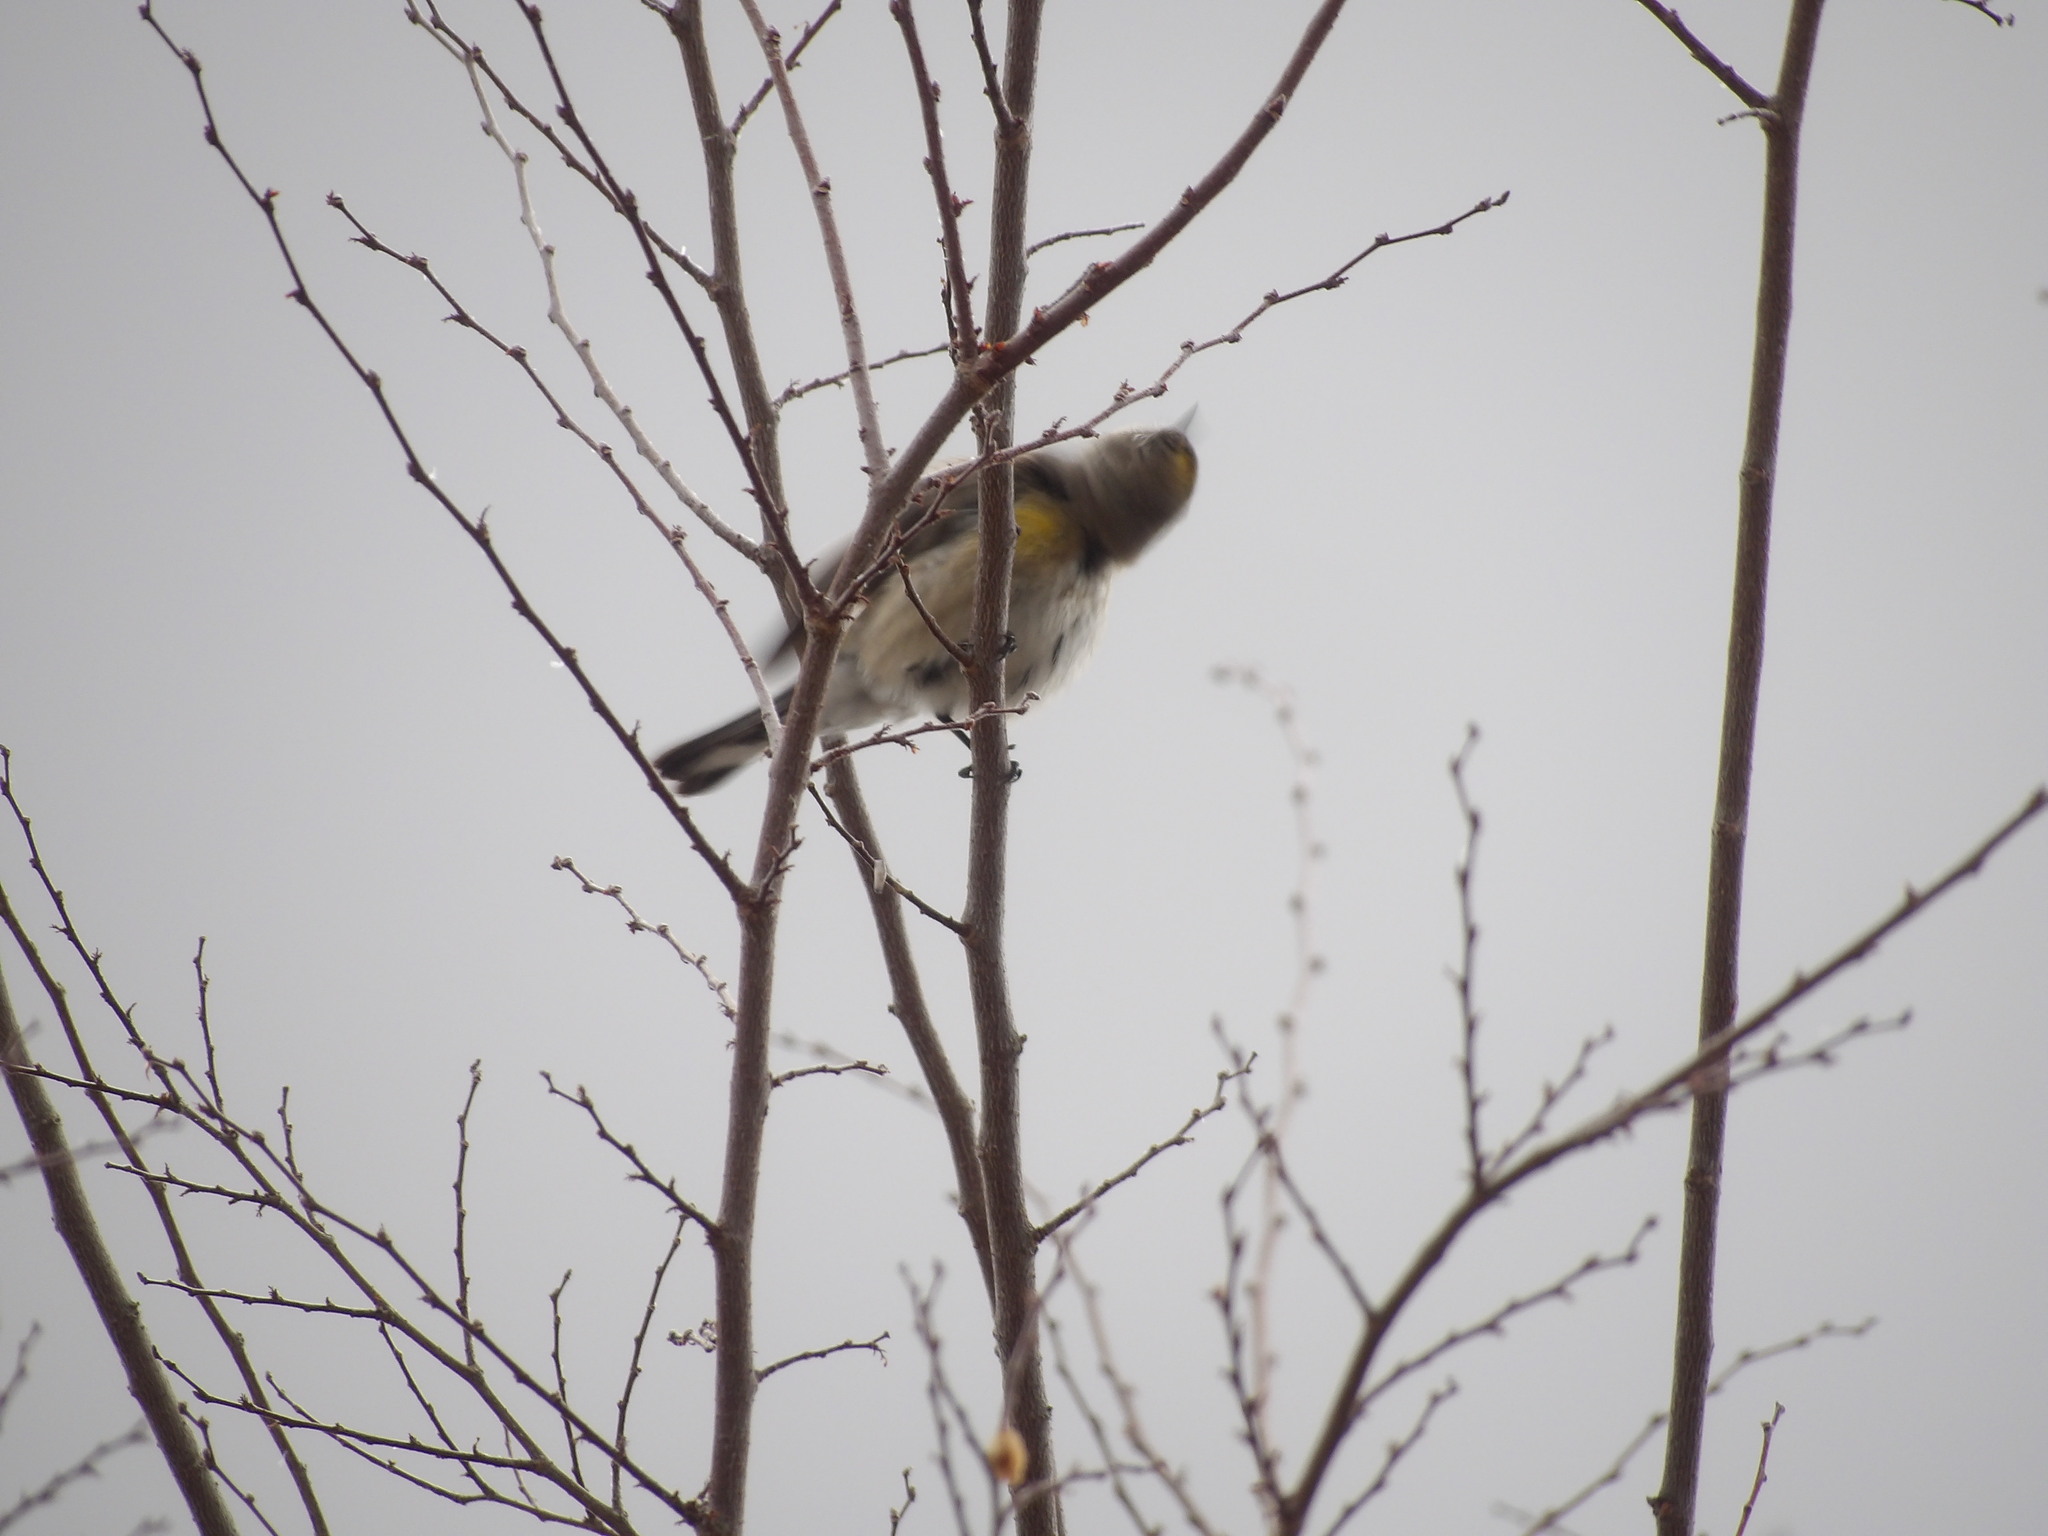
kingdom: Animalia
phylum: Chordata
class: Aves
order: Passeriformes
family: Parulidae
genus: Setophaga
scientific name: Setophaga coronata
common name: Myrtle warbler
